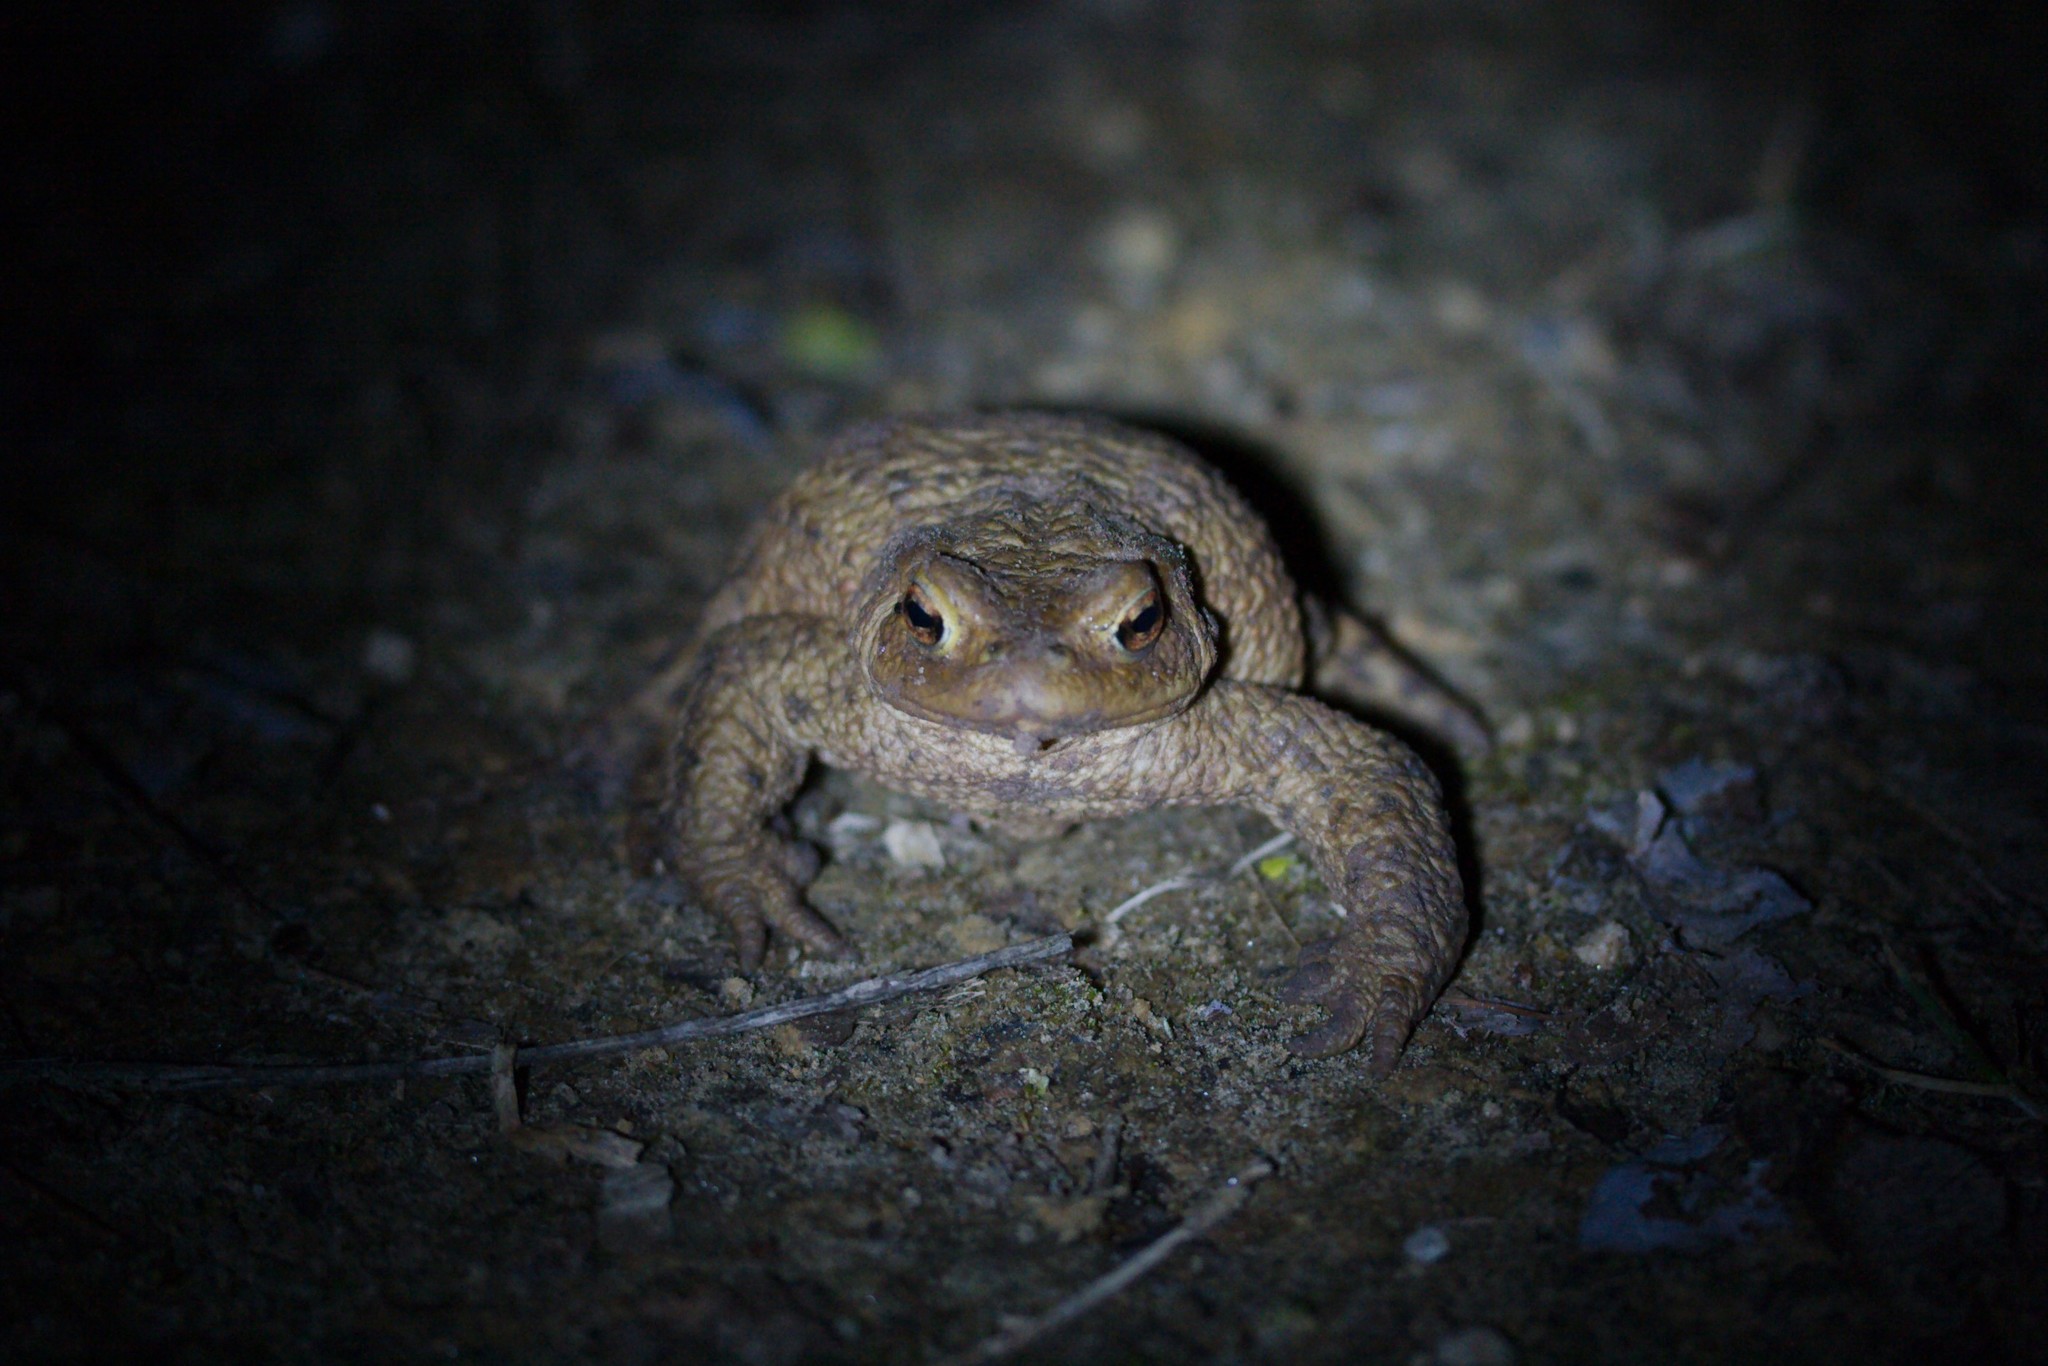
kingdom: Animalia
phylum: Chordata
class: Amphibia
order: Anura
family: Bufonidae
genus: Bufo
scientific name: Bufo bufo
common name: Common toad
